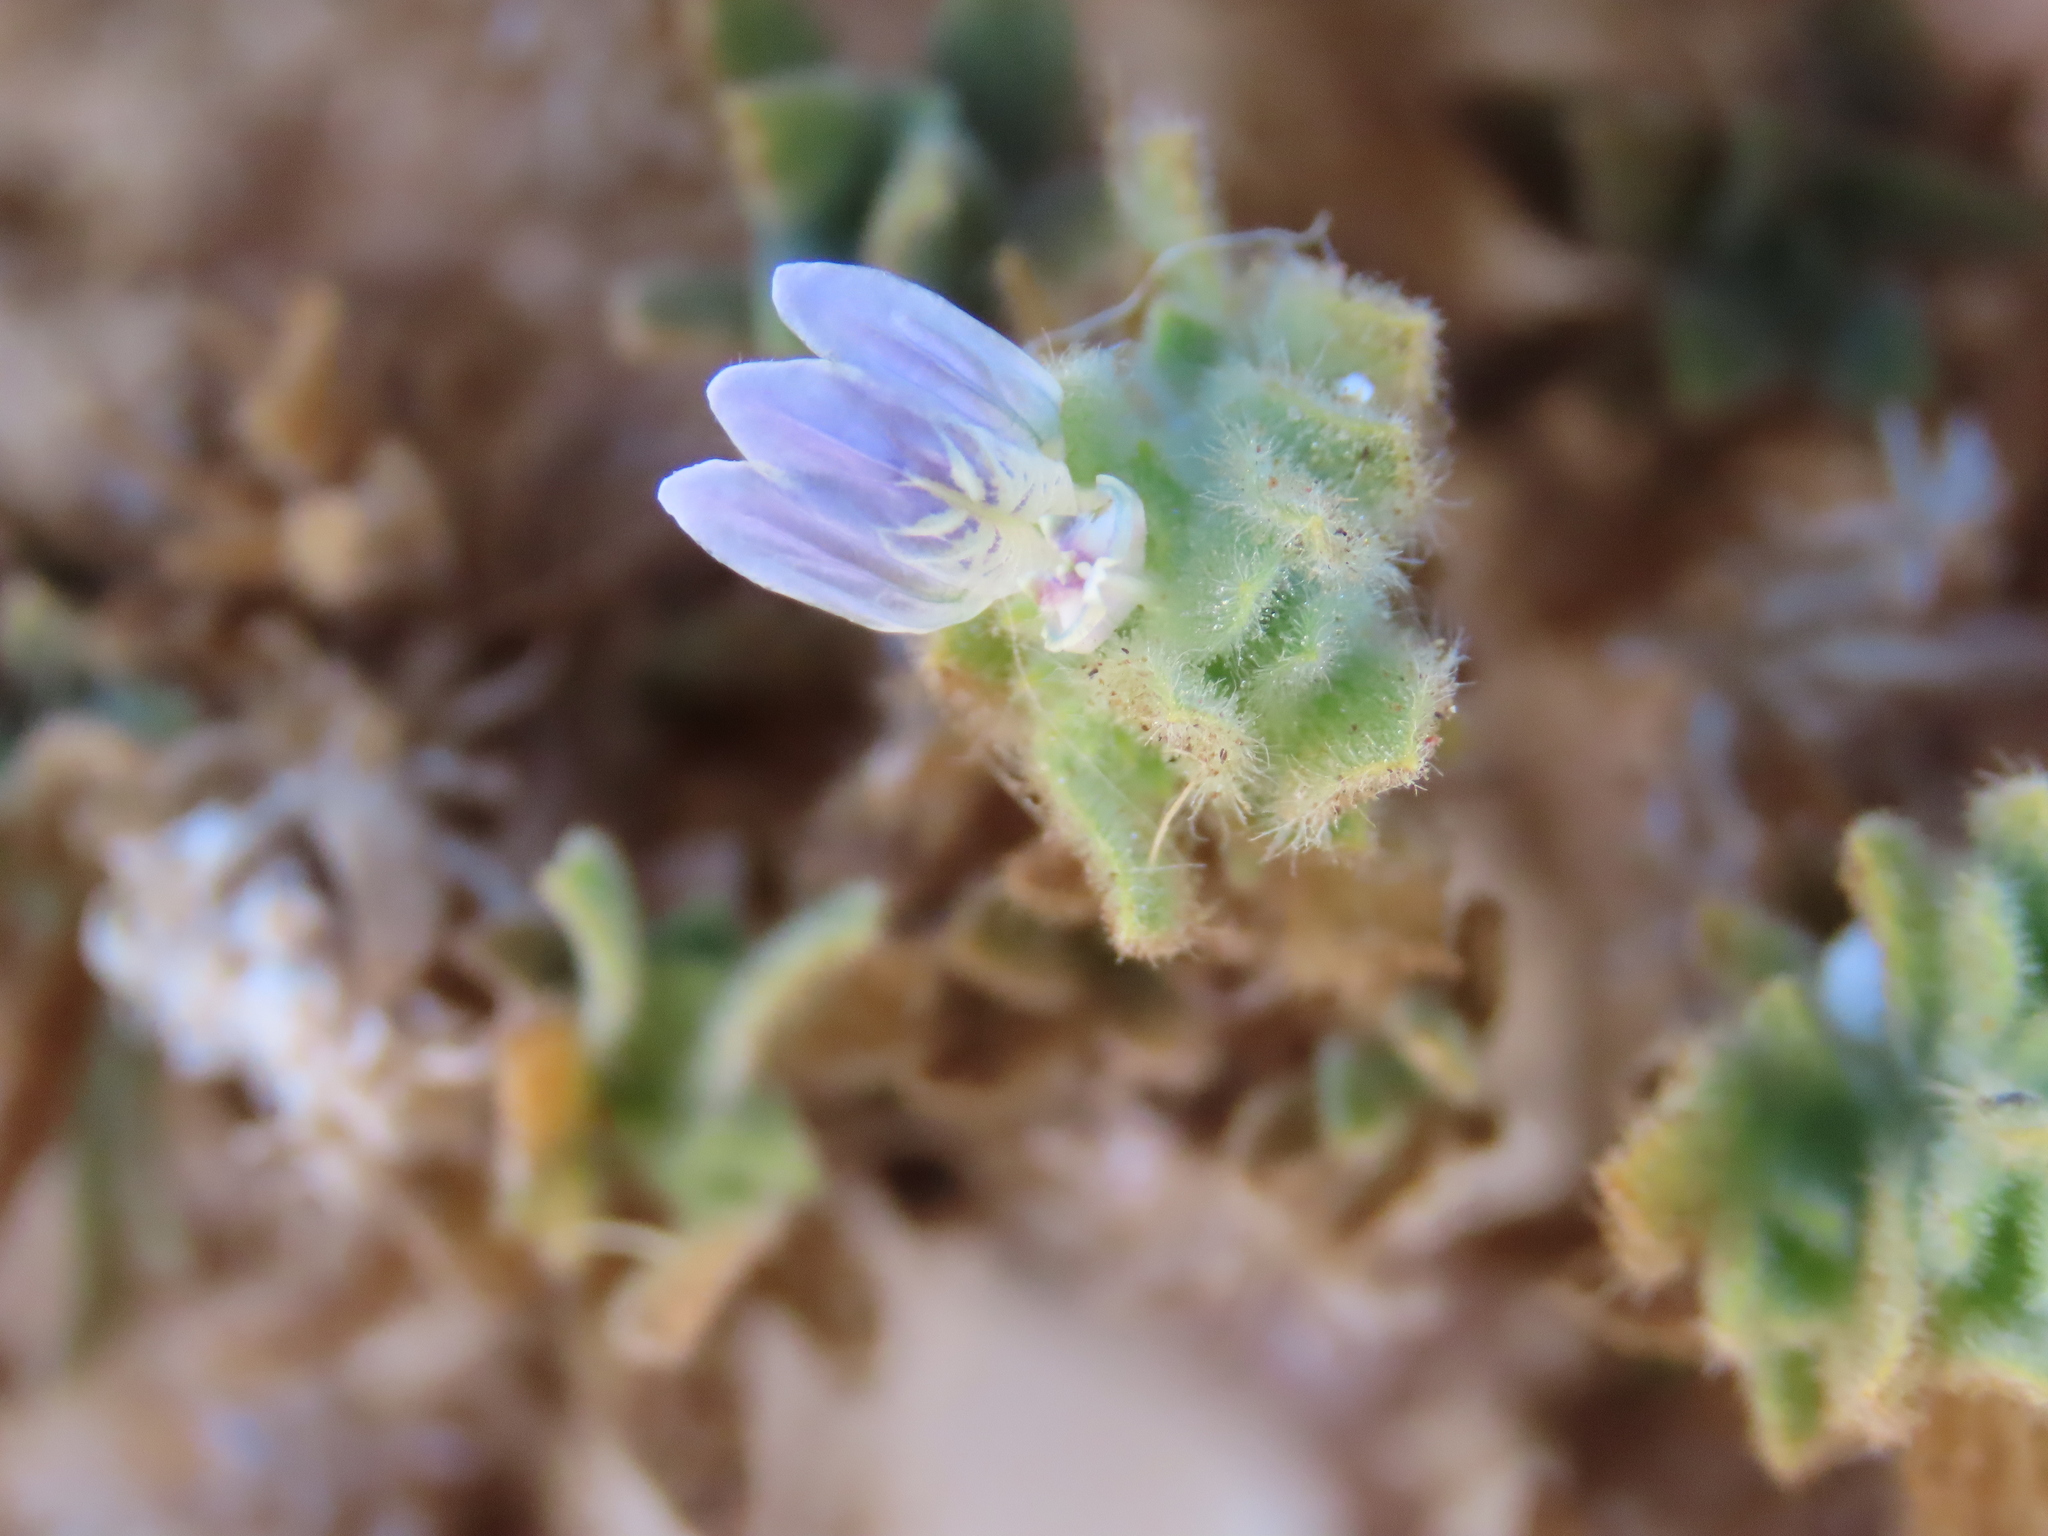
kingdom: Plantae
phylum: Tracheophyta
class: Magnoliopsida
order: Lamiales
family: Acanthaceae
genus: Pogonospermum
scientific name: Pogonospermum
